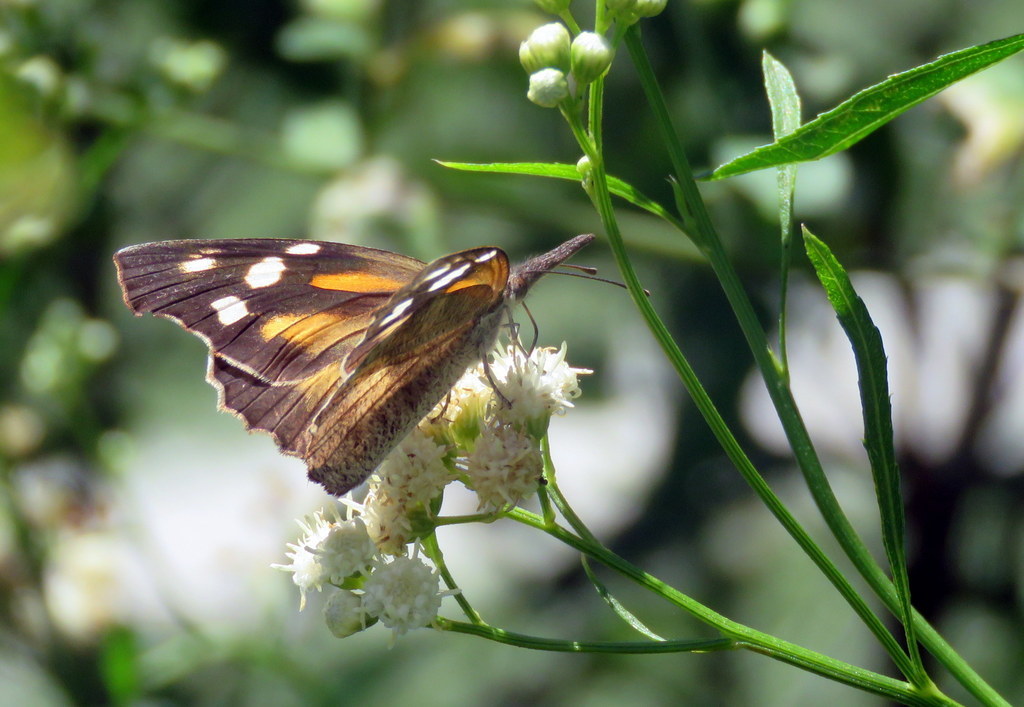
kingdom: Animalia
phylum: Arthropoda
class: Insecta
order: Lepidoptera
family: Nymphalidae
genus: Libytheana
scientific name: Libytheana carinenta
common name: American snout
